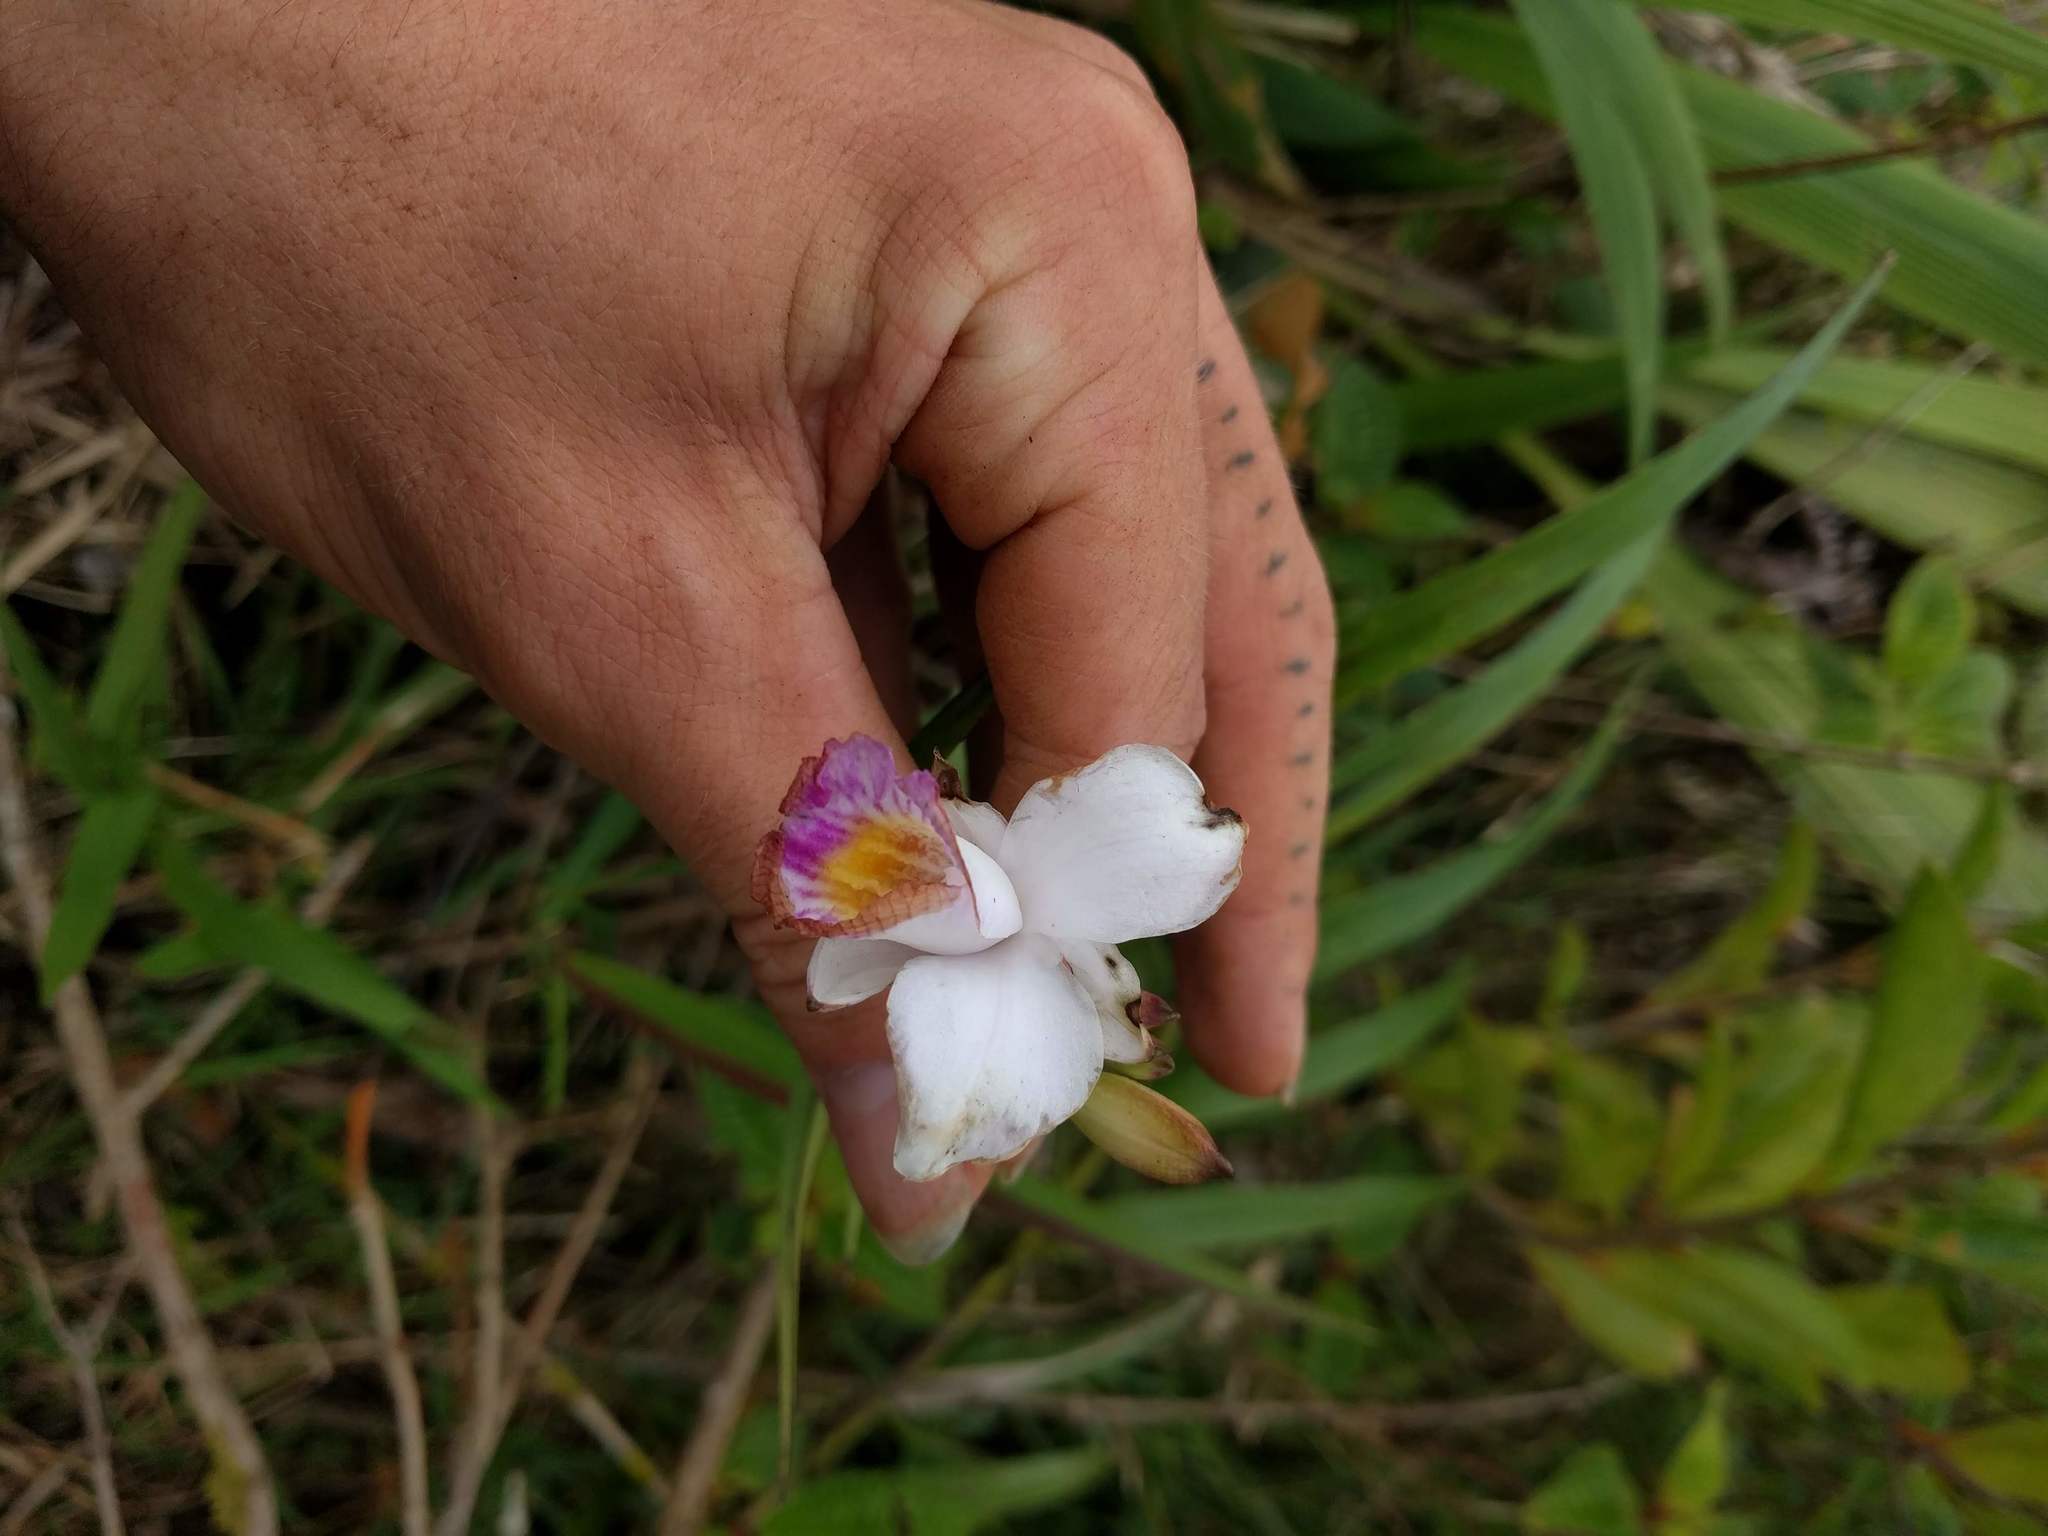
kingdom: Plantae
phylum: Tracheophyta
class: Liliopsida
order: Asparagales
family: Orchidaceae
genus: Arundina
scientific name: Arundina graminifolia
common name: Bamboo orchid
